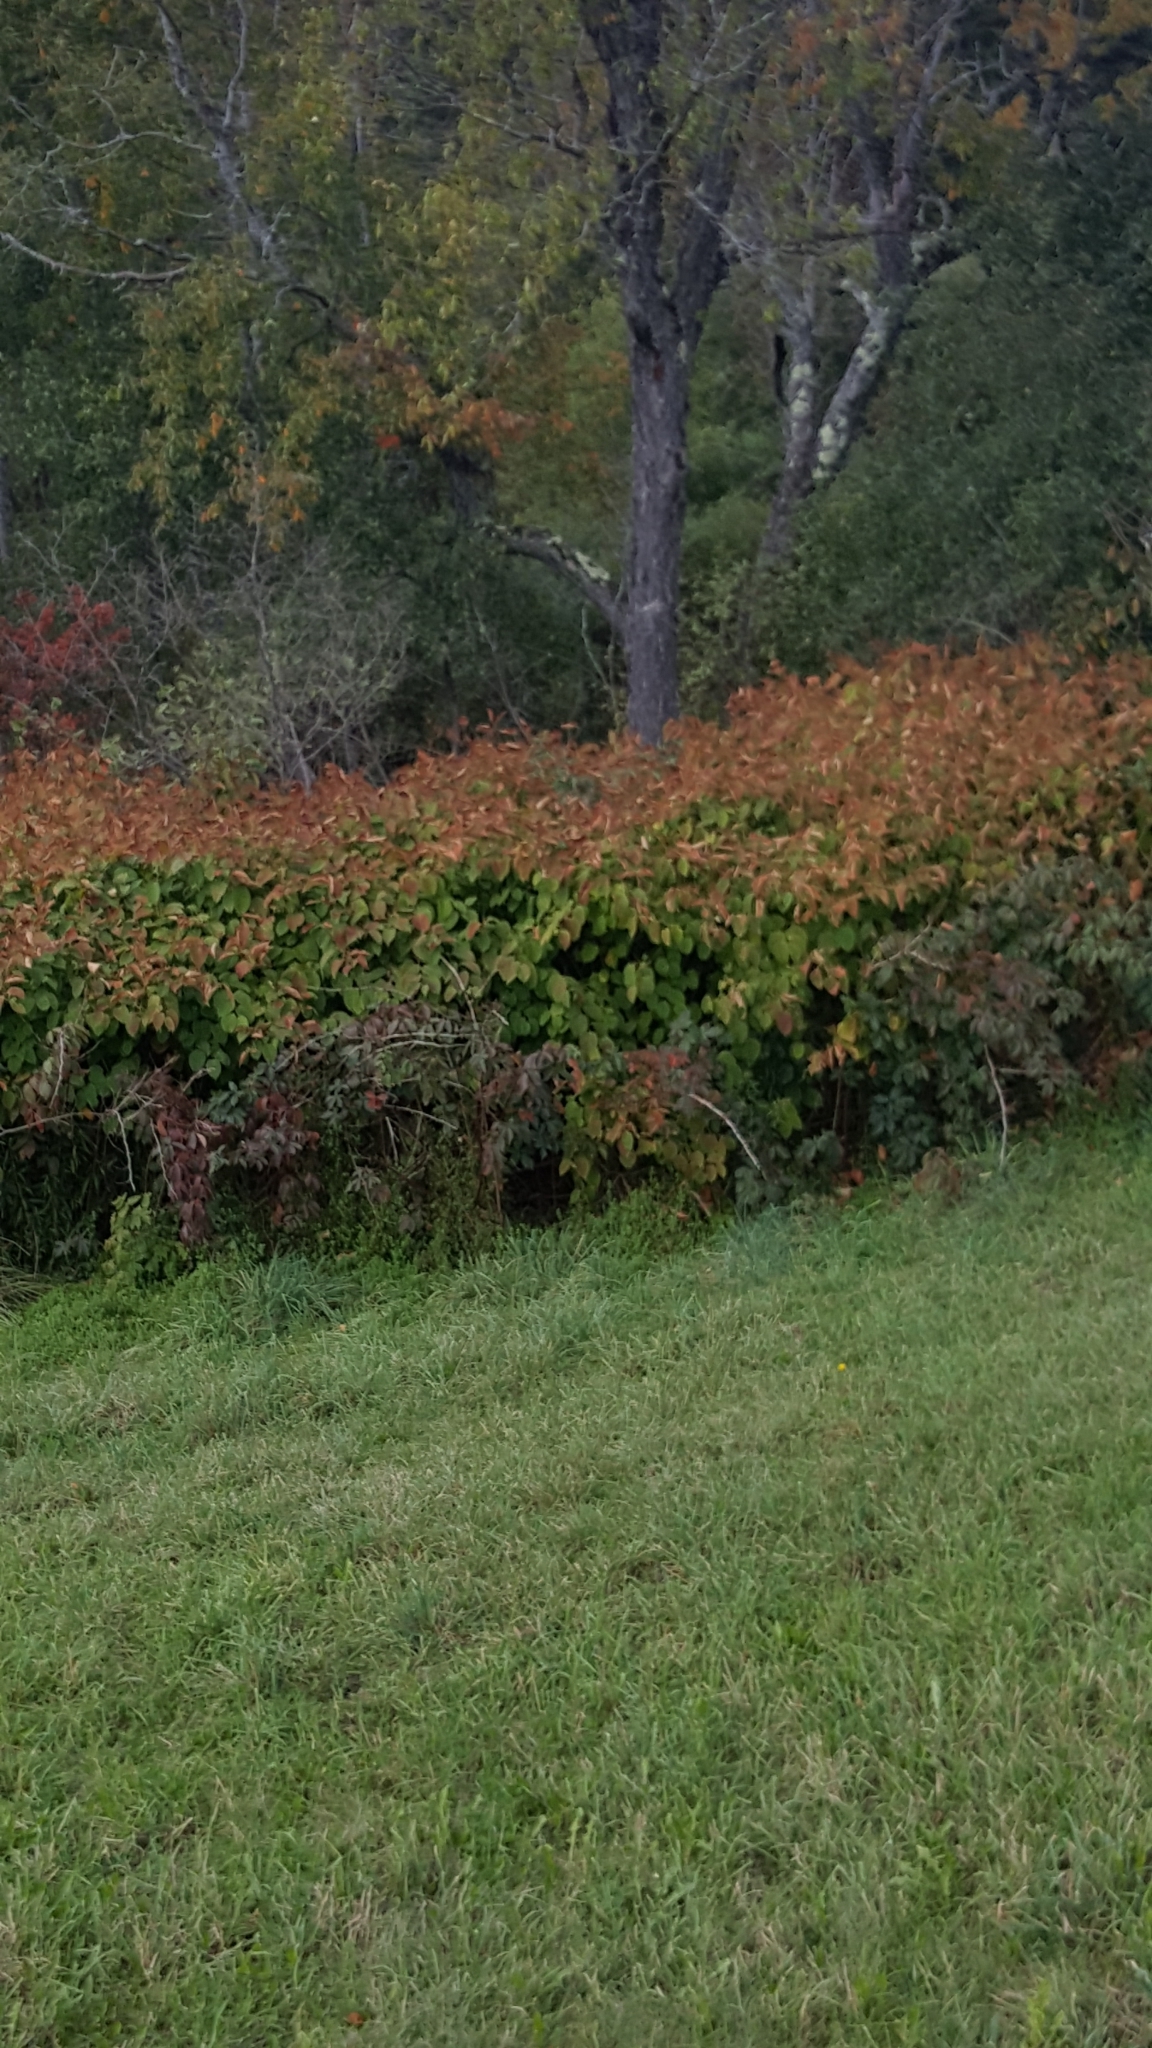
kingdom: Plantae
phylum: Tracheophyta
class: Magnoliopsida
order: Caryophyllales
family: Polygonaceae
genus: Reynoutria
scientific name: Reynoutria japonica
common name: Japanese knotweed
